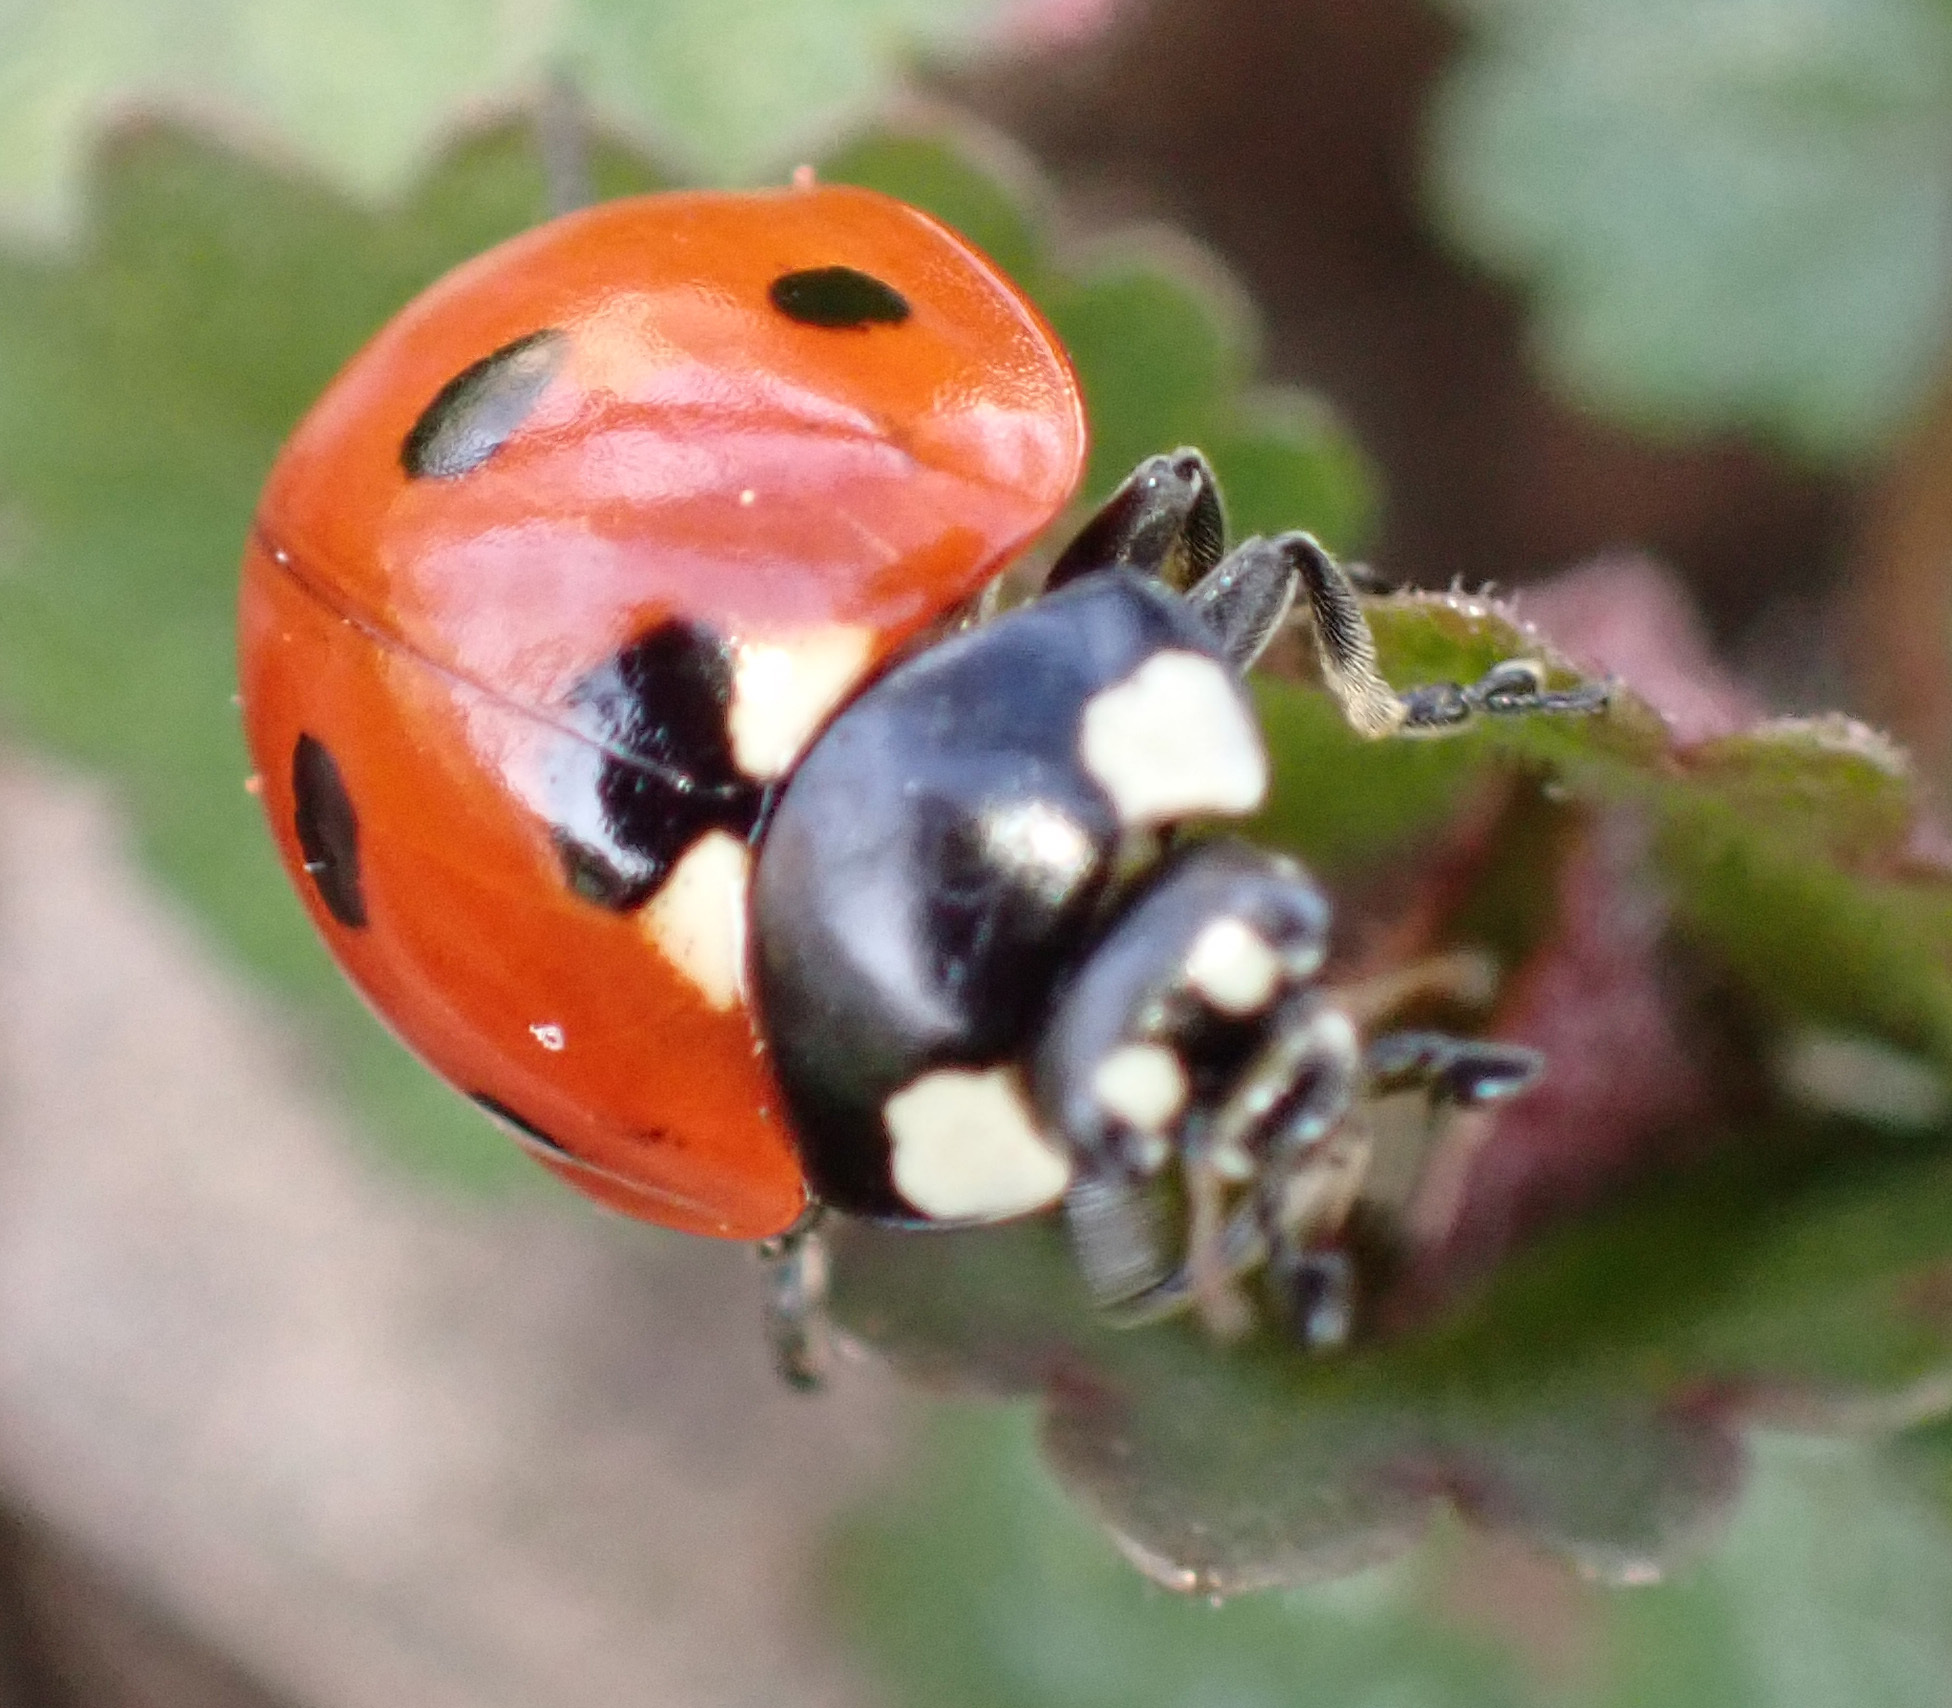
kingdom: Animalia
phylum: Arthropoda
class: Insecta
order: Coleoptera
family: Coccinellidae
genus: Coccinella
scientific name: Coccinella septempunctata
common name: Sevenspotted lady beetle
